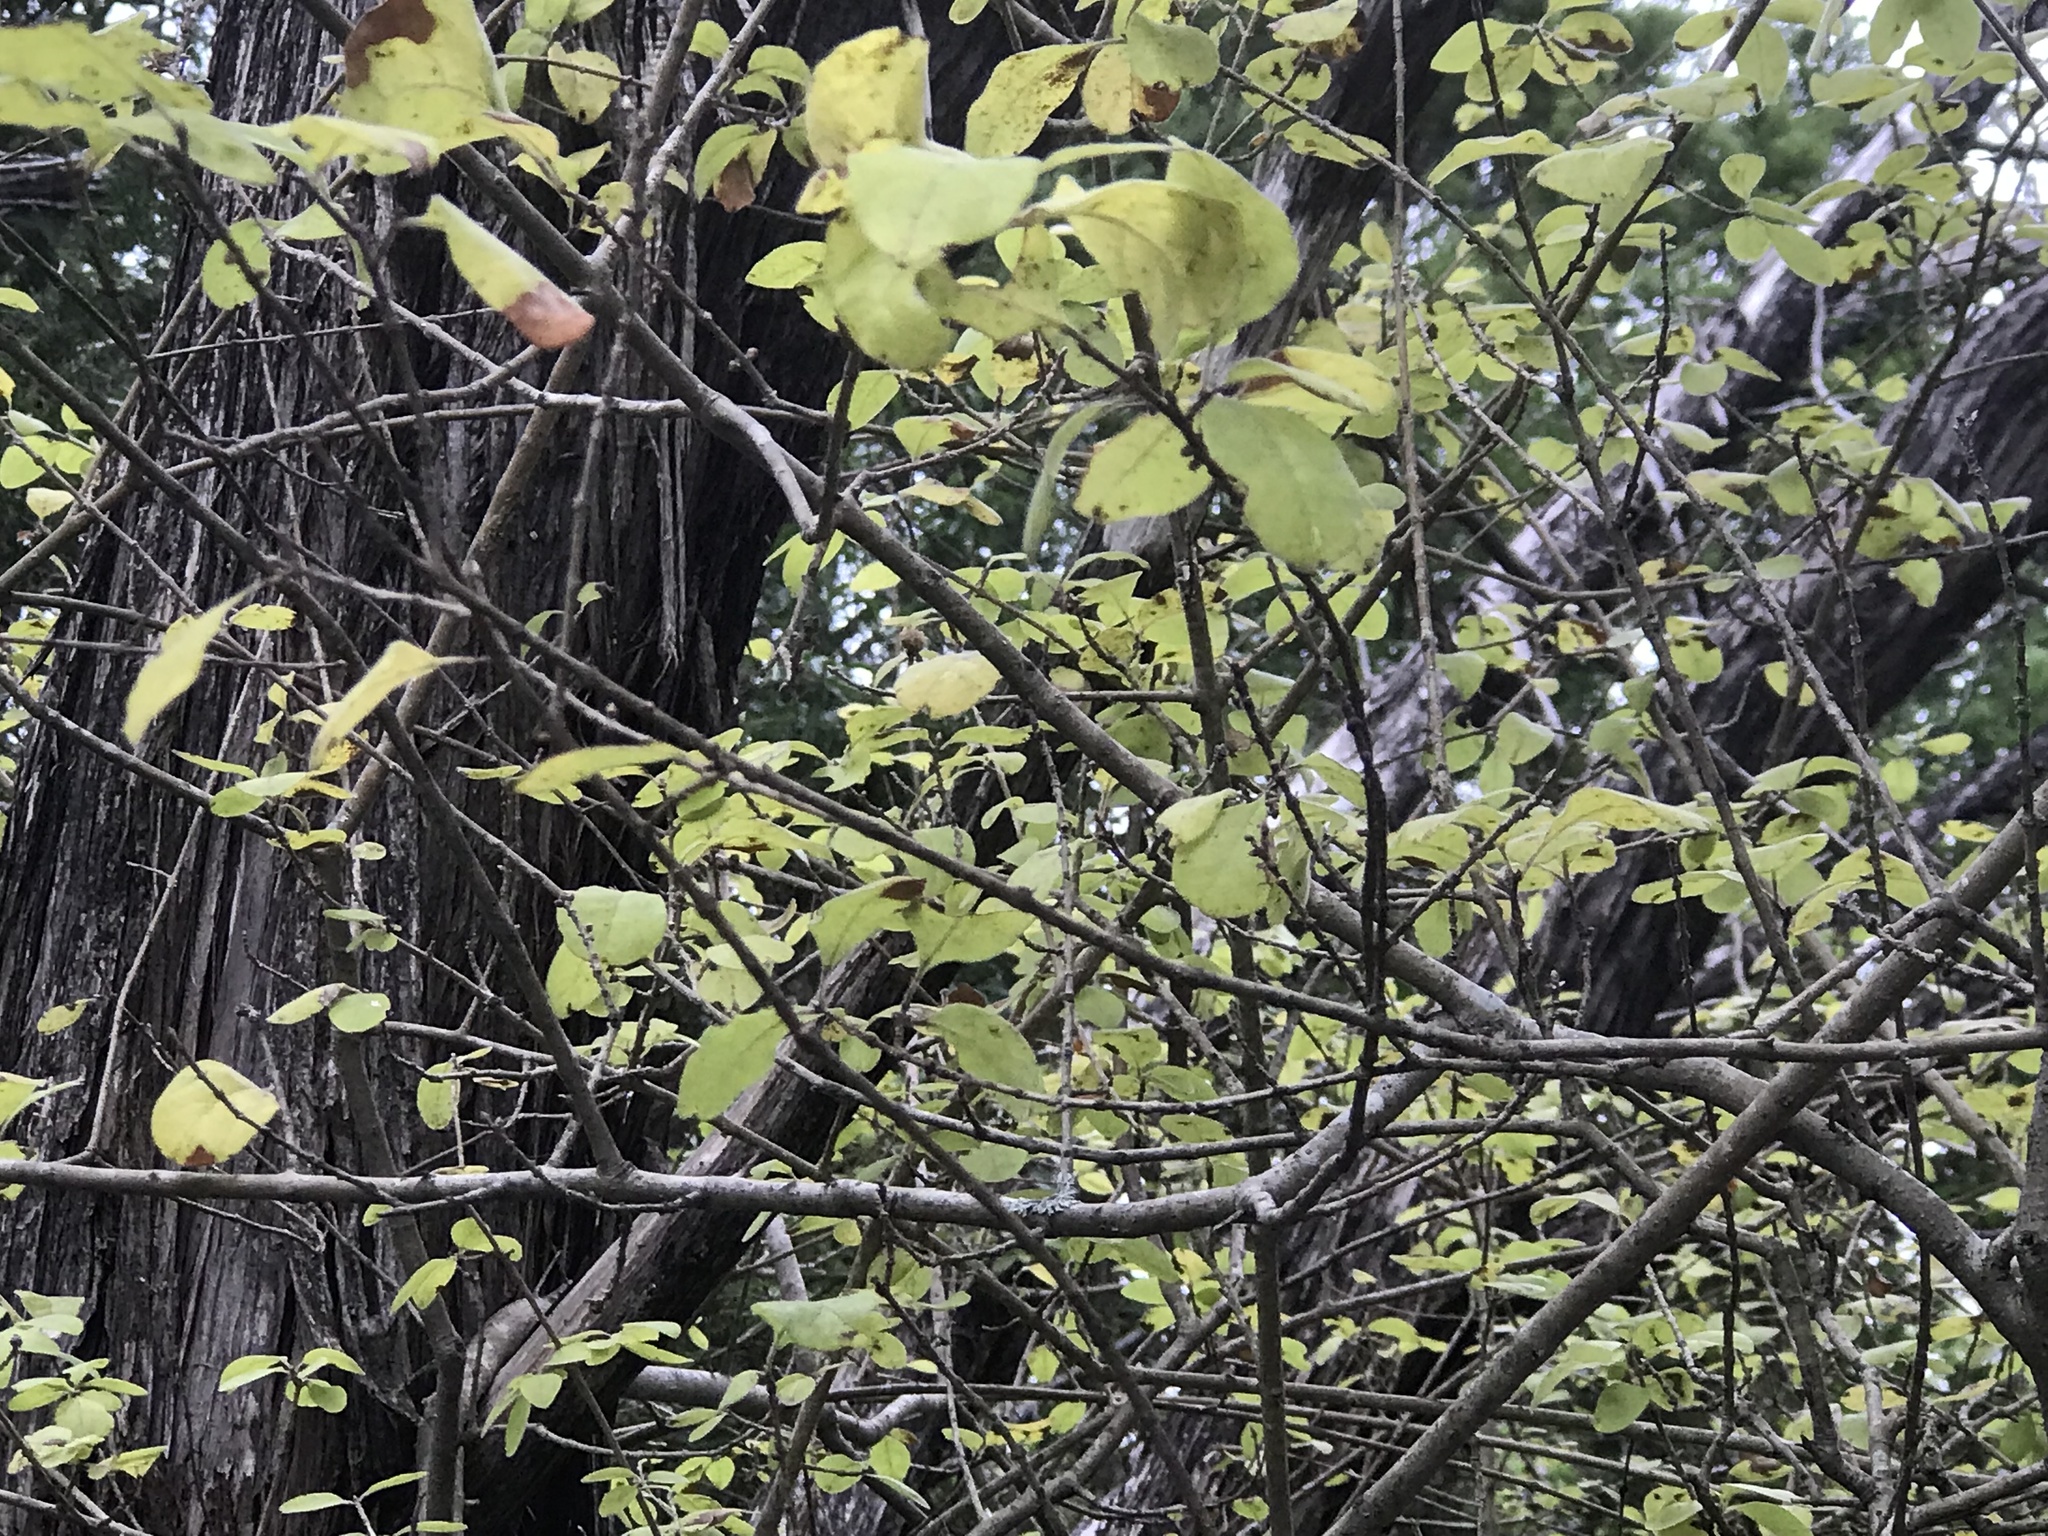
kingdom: Plantae
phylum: Tracheophyta
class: Magnoliopsida
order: Lamiales
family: Oleaceae
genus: Forestiera
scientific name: Forestiera pubescens
